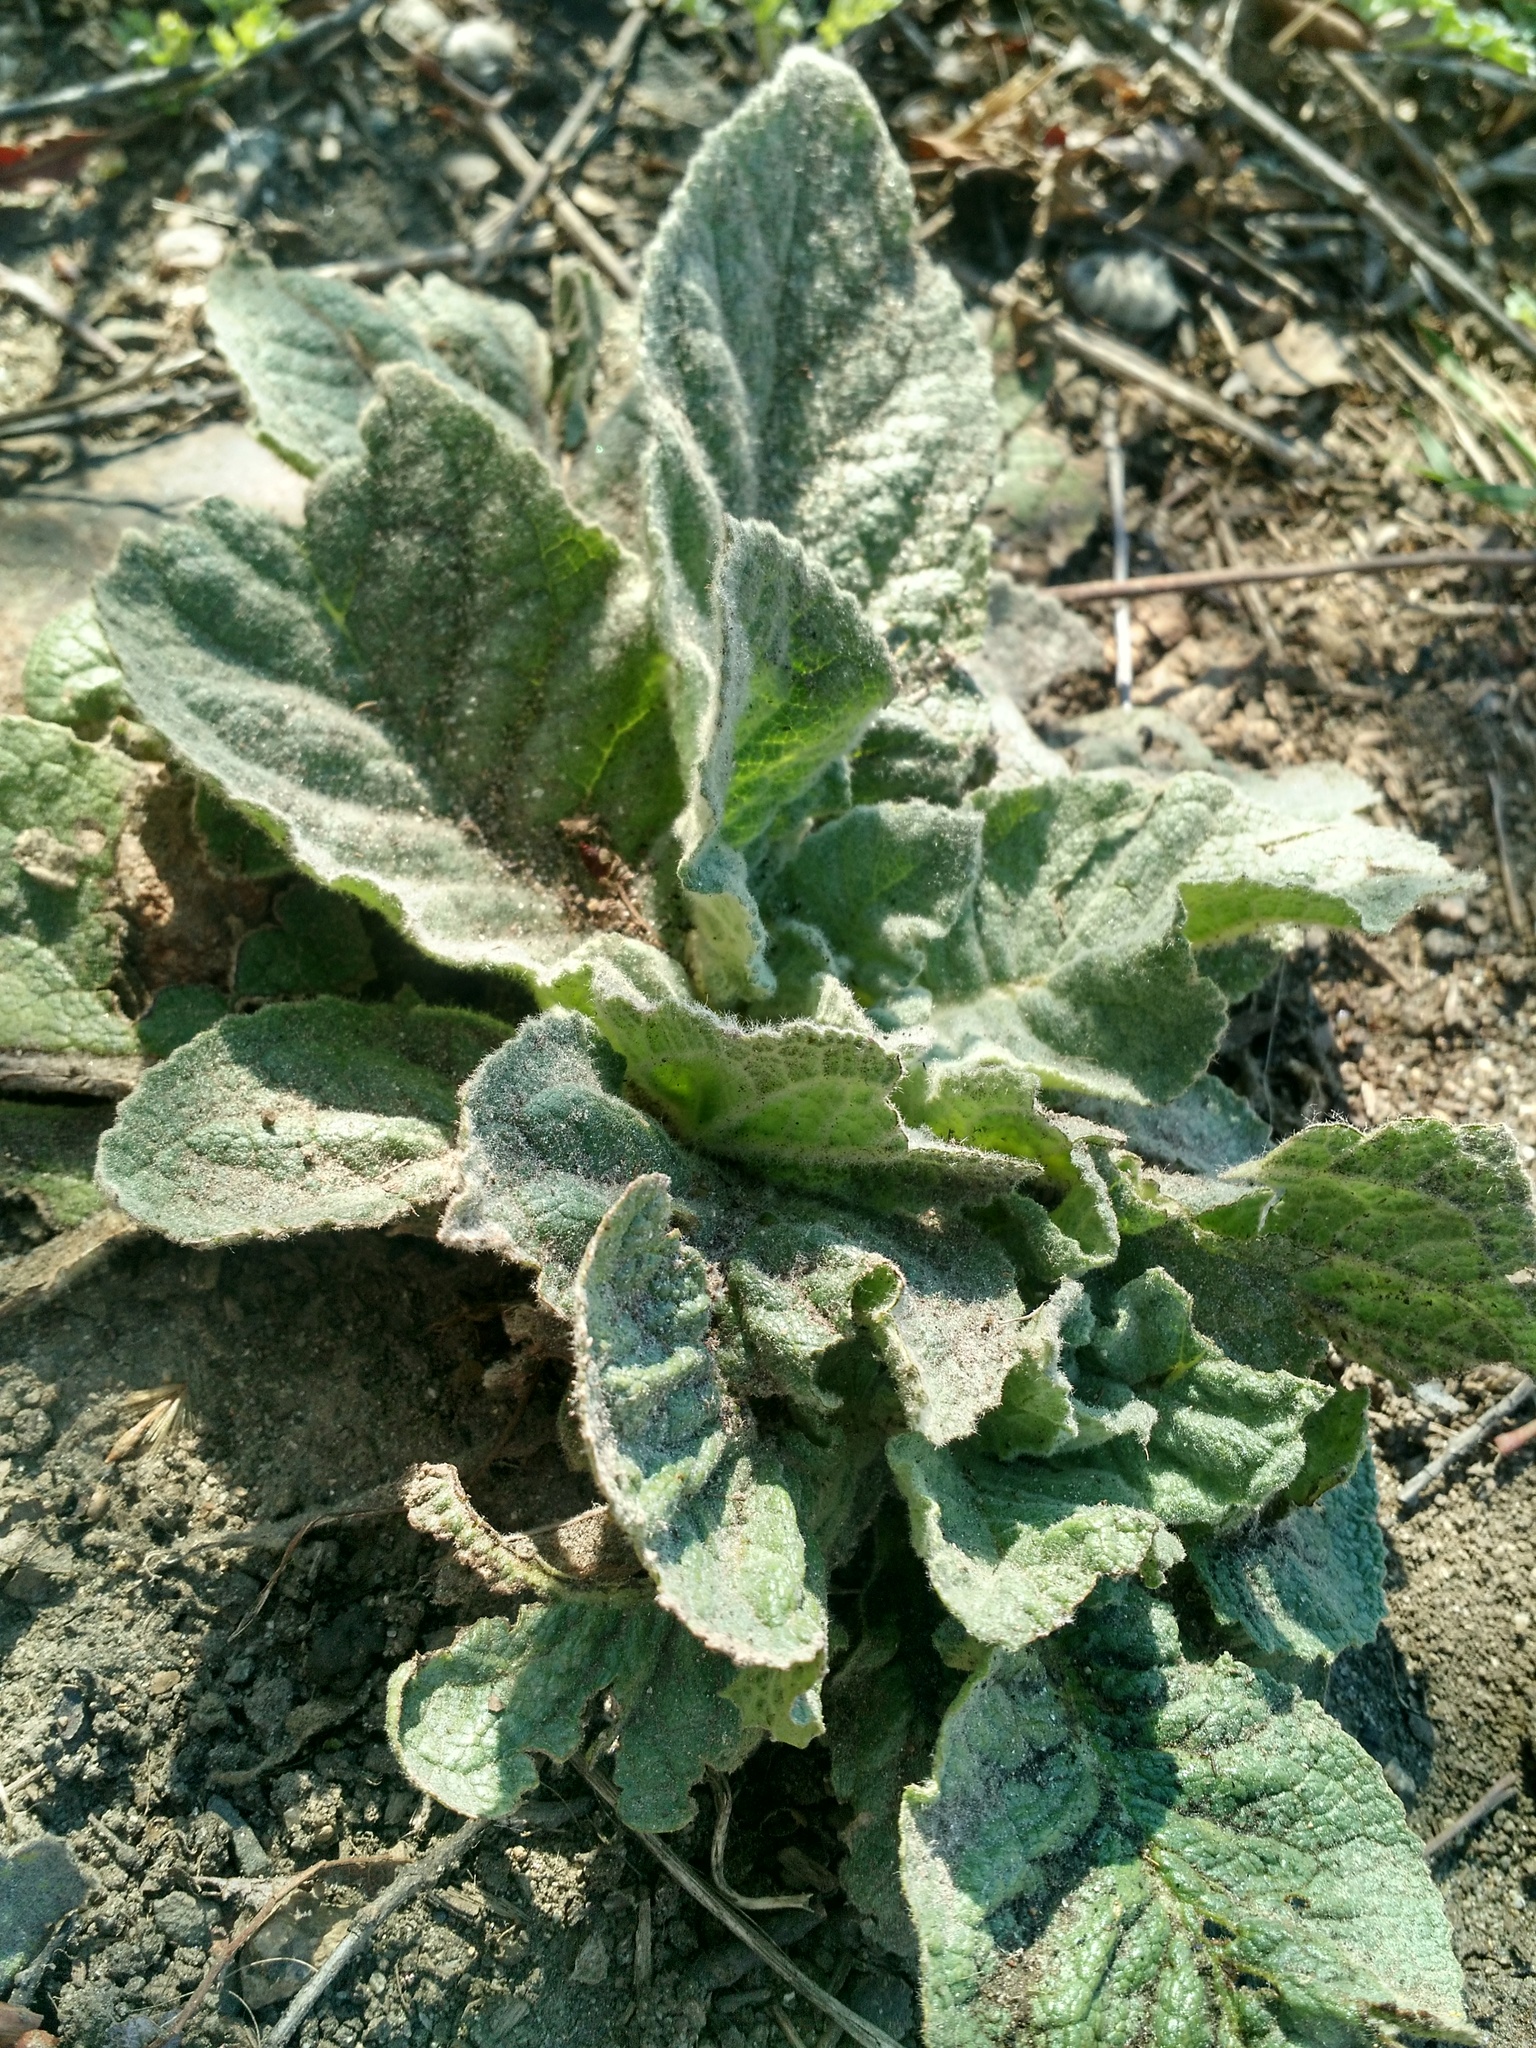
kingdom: Plantae
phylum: Tracheophyta
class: Magnoliopsida
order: Lamiales
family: Scrophulariaceae
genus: Verbascum
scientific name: Verbascum thapsus
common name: Common mullein
